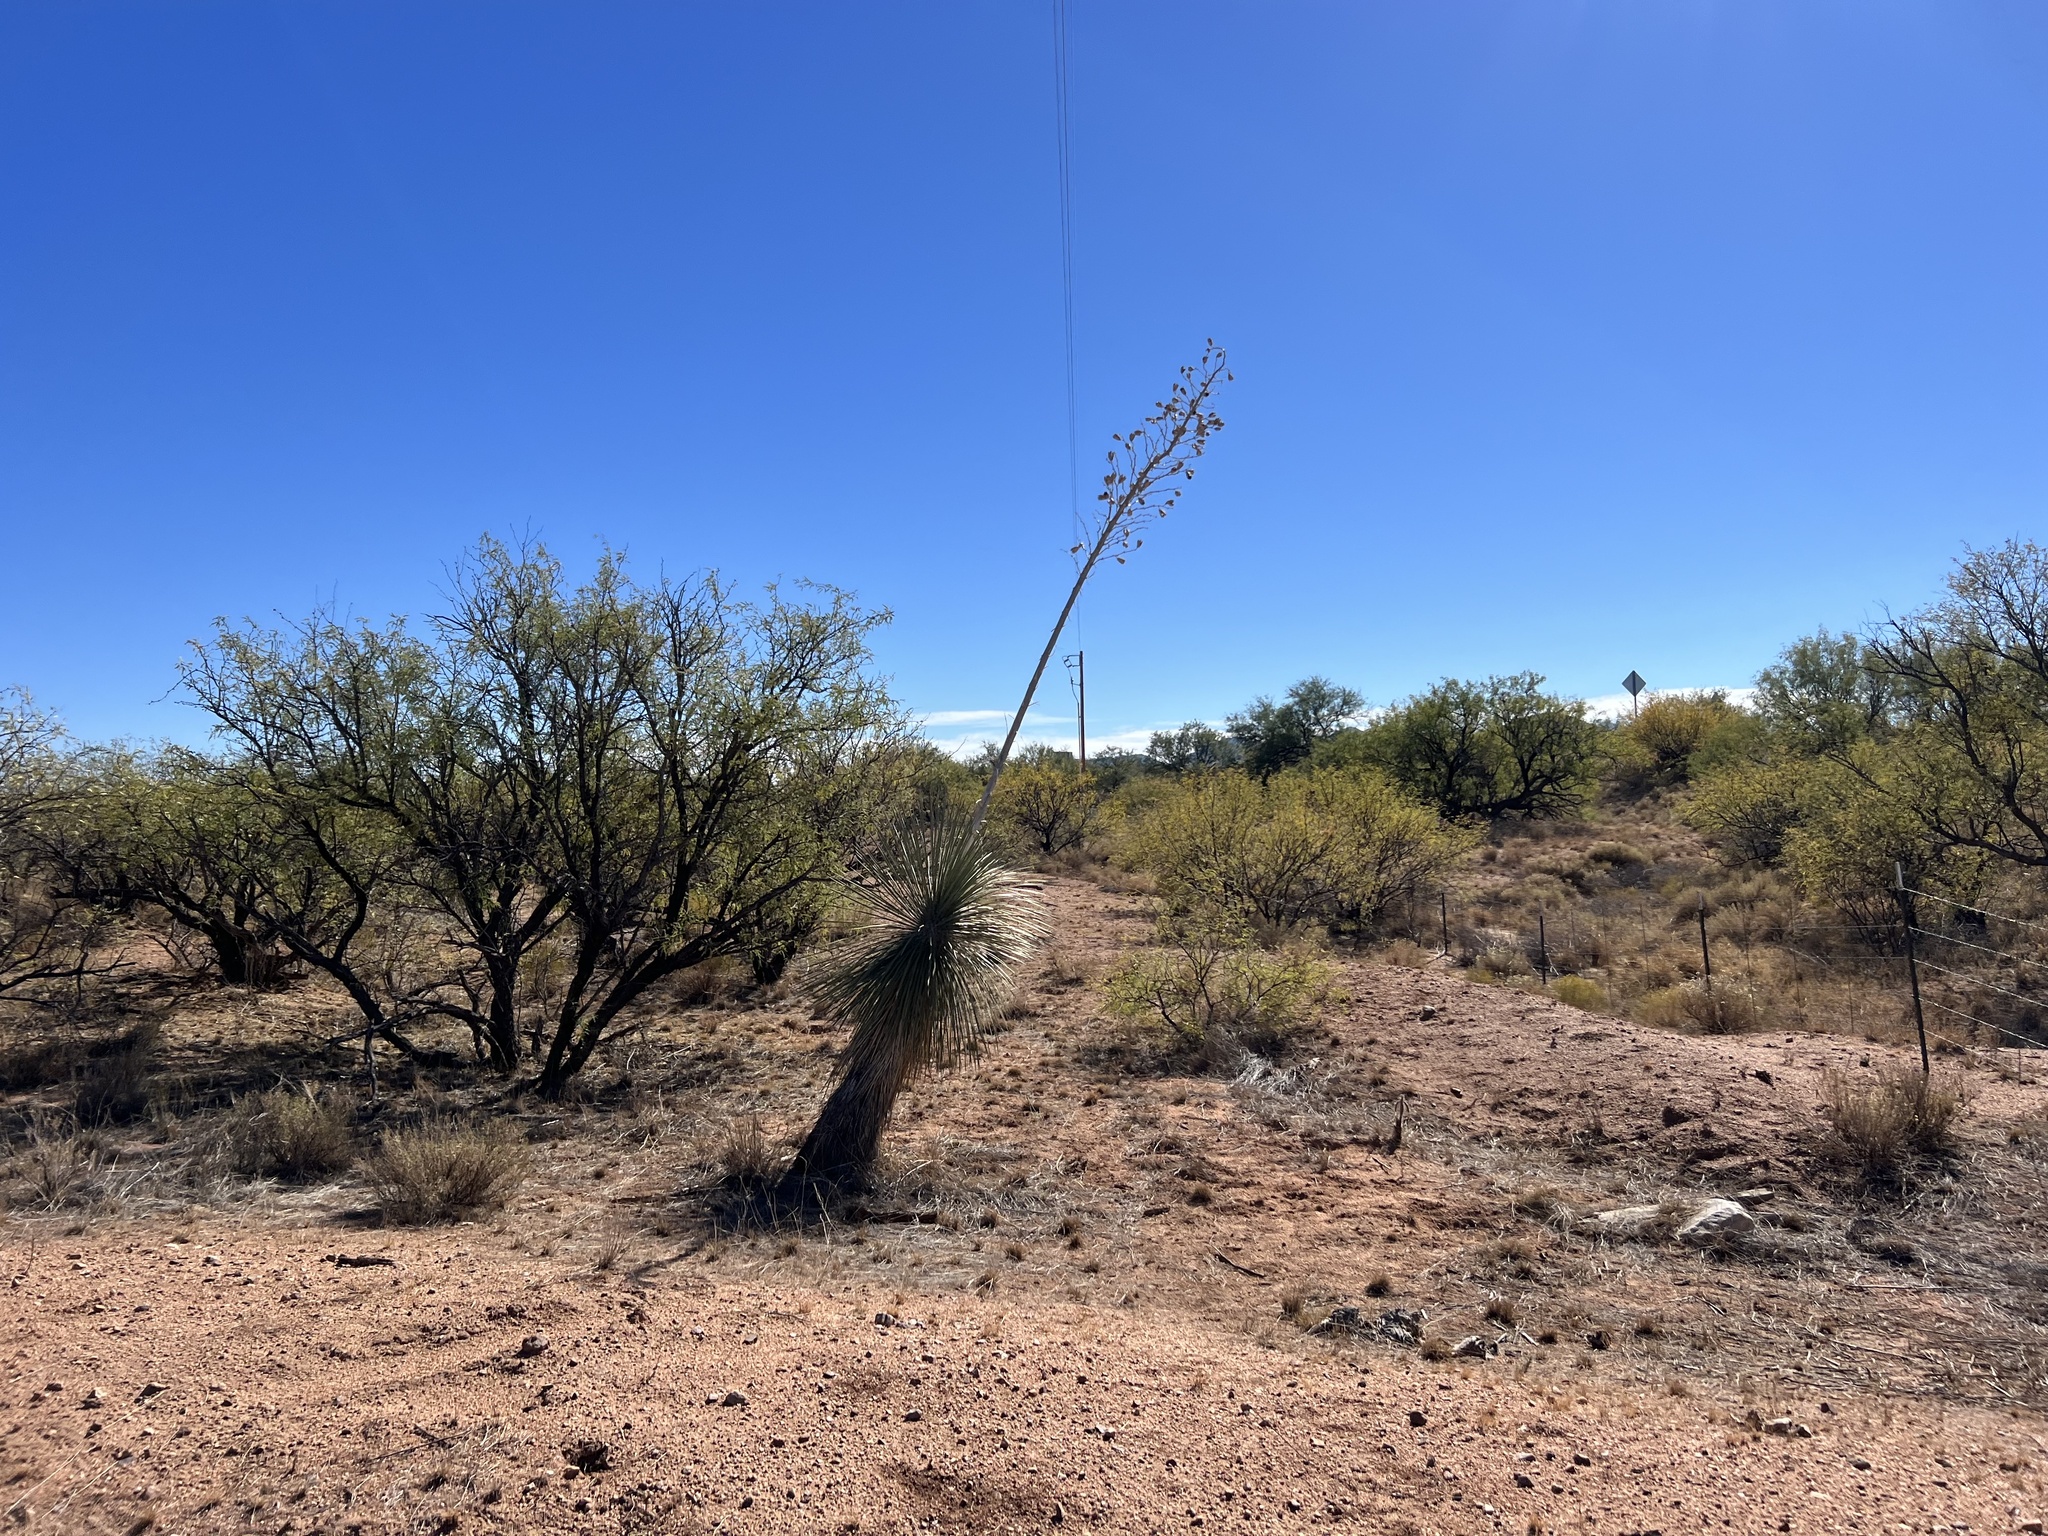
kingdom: Plantae
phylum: Tracheophyta
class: Liliopsida
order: Asparagales
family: Asparagaceae
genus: Yucca
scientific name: Yucca elata
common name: Palmella
